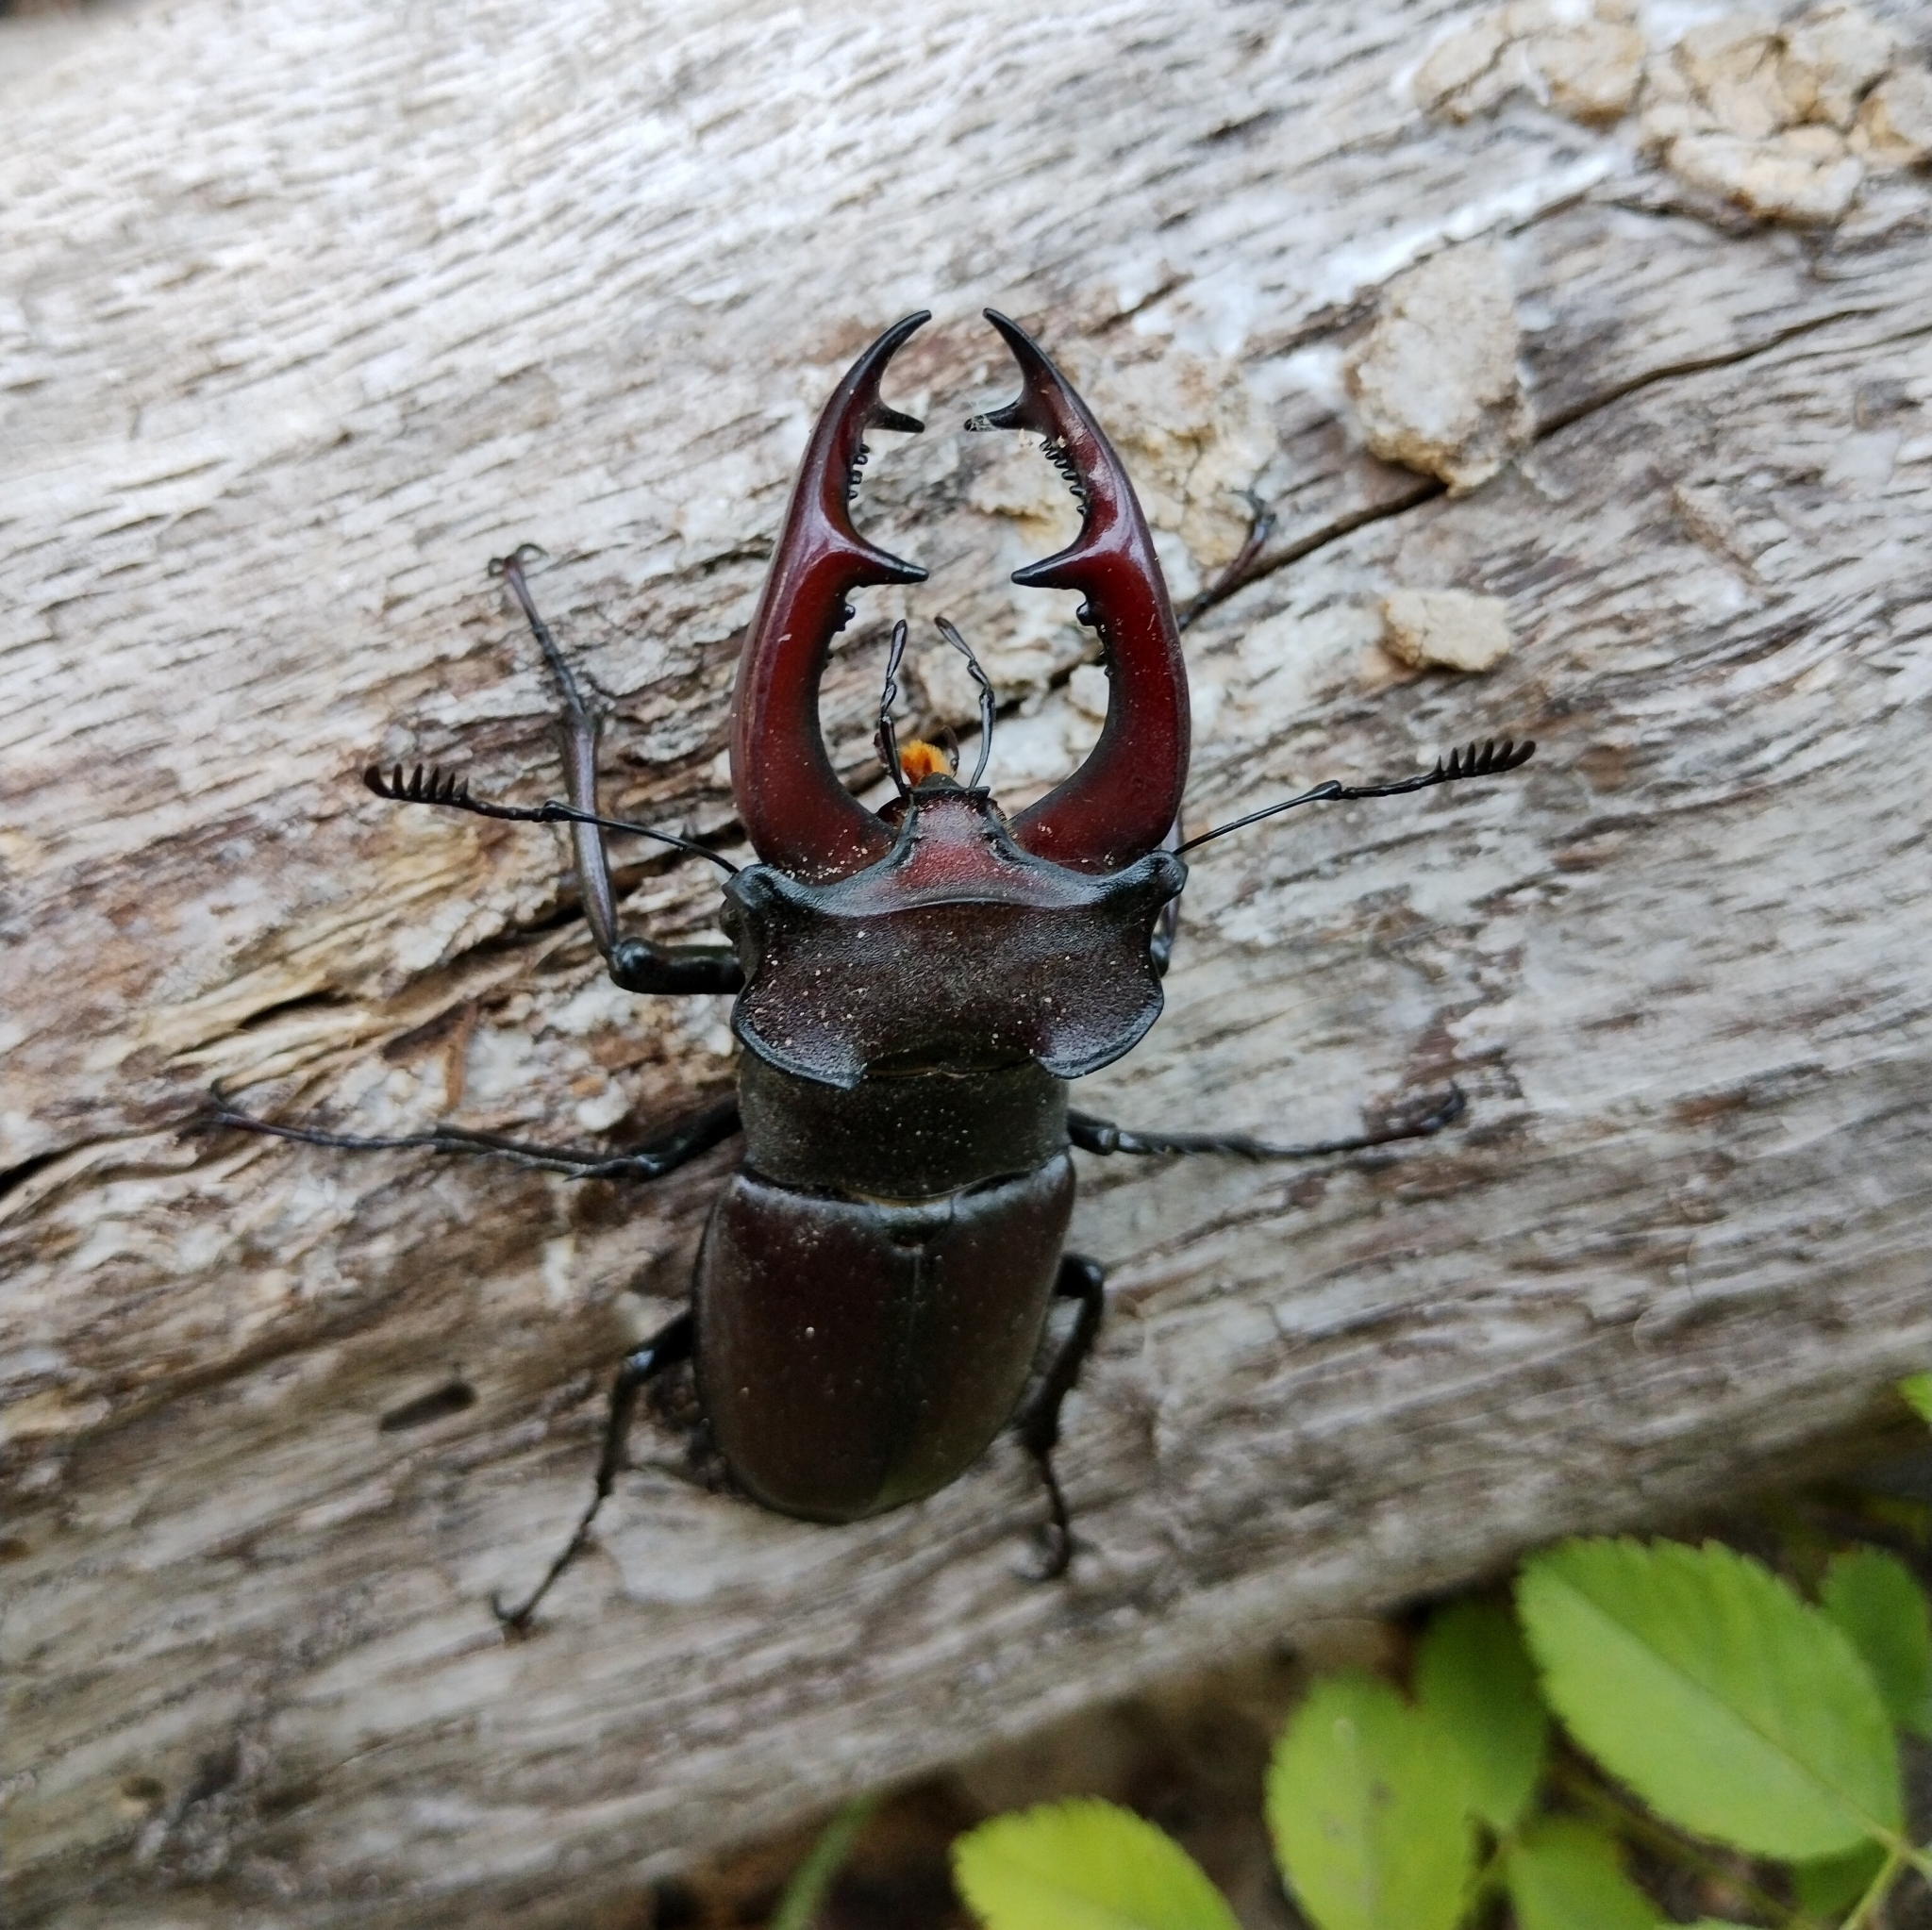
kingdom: Animalia
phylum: Arthropoda
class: Insecta
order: Coleoptera
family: Lucanidae
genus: Lucanus
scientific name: Lucanus cervus
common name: Stag beetle
